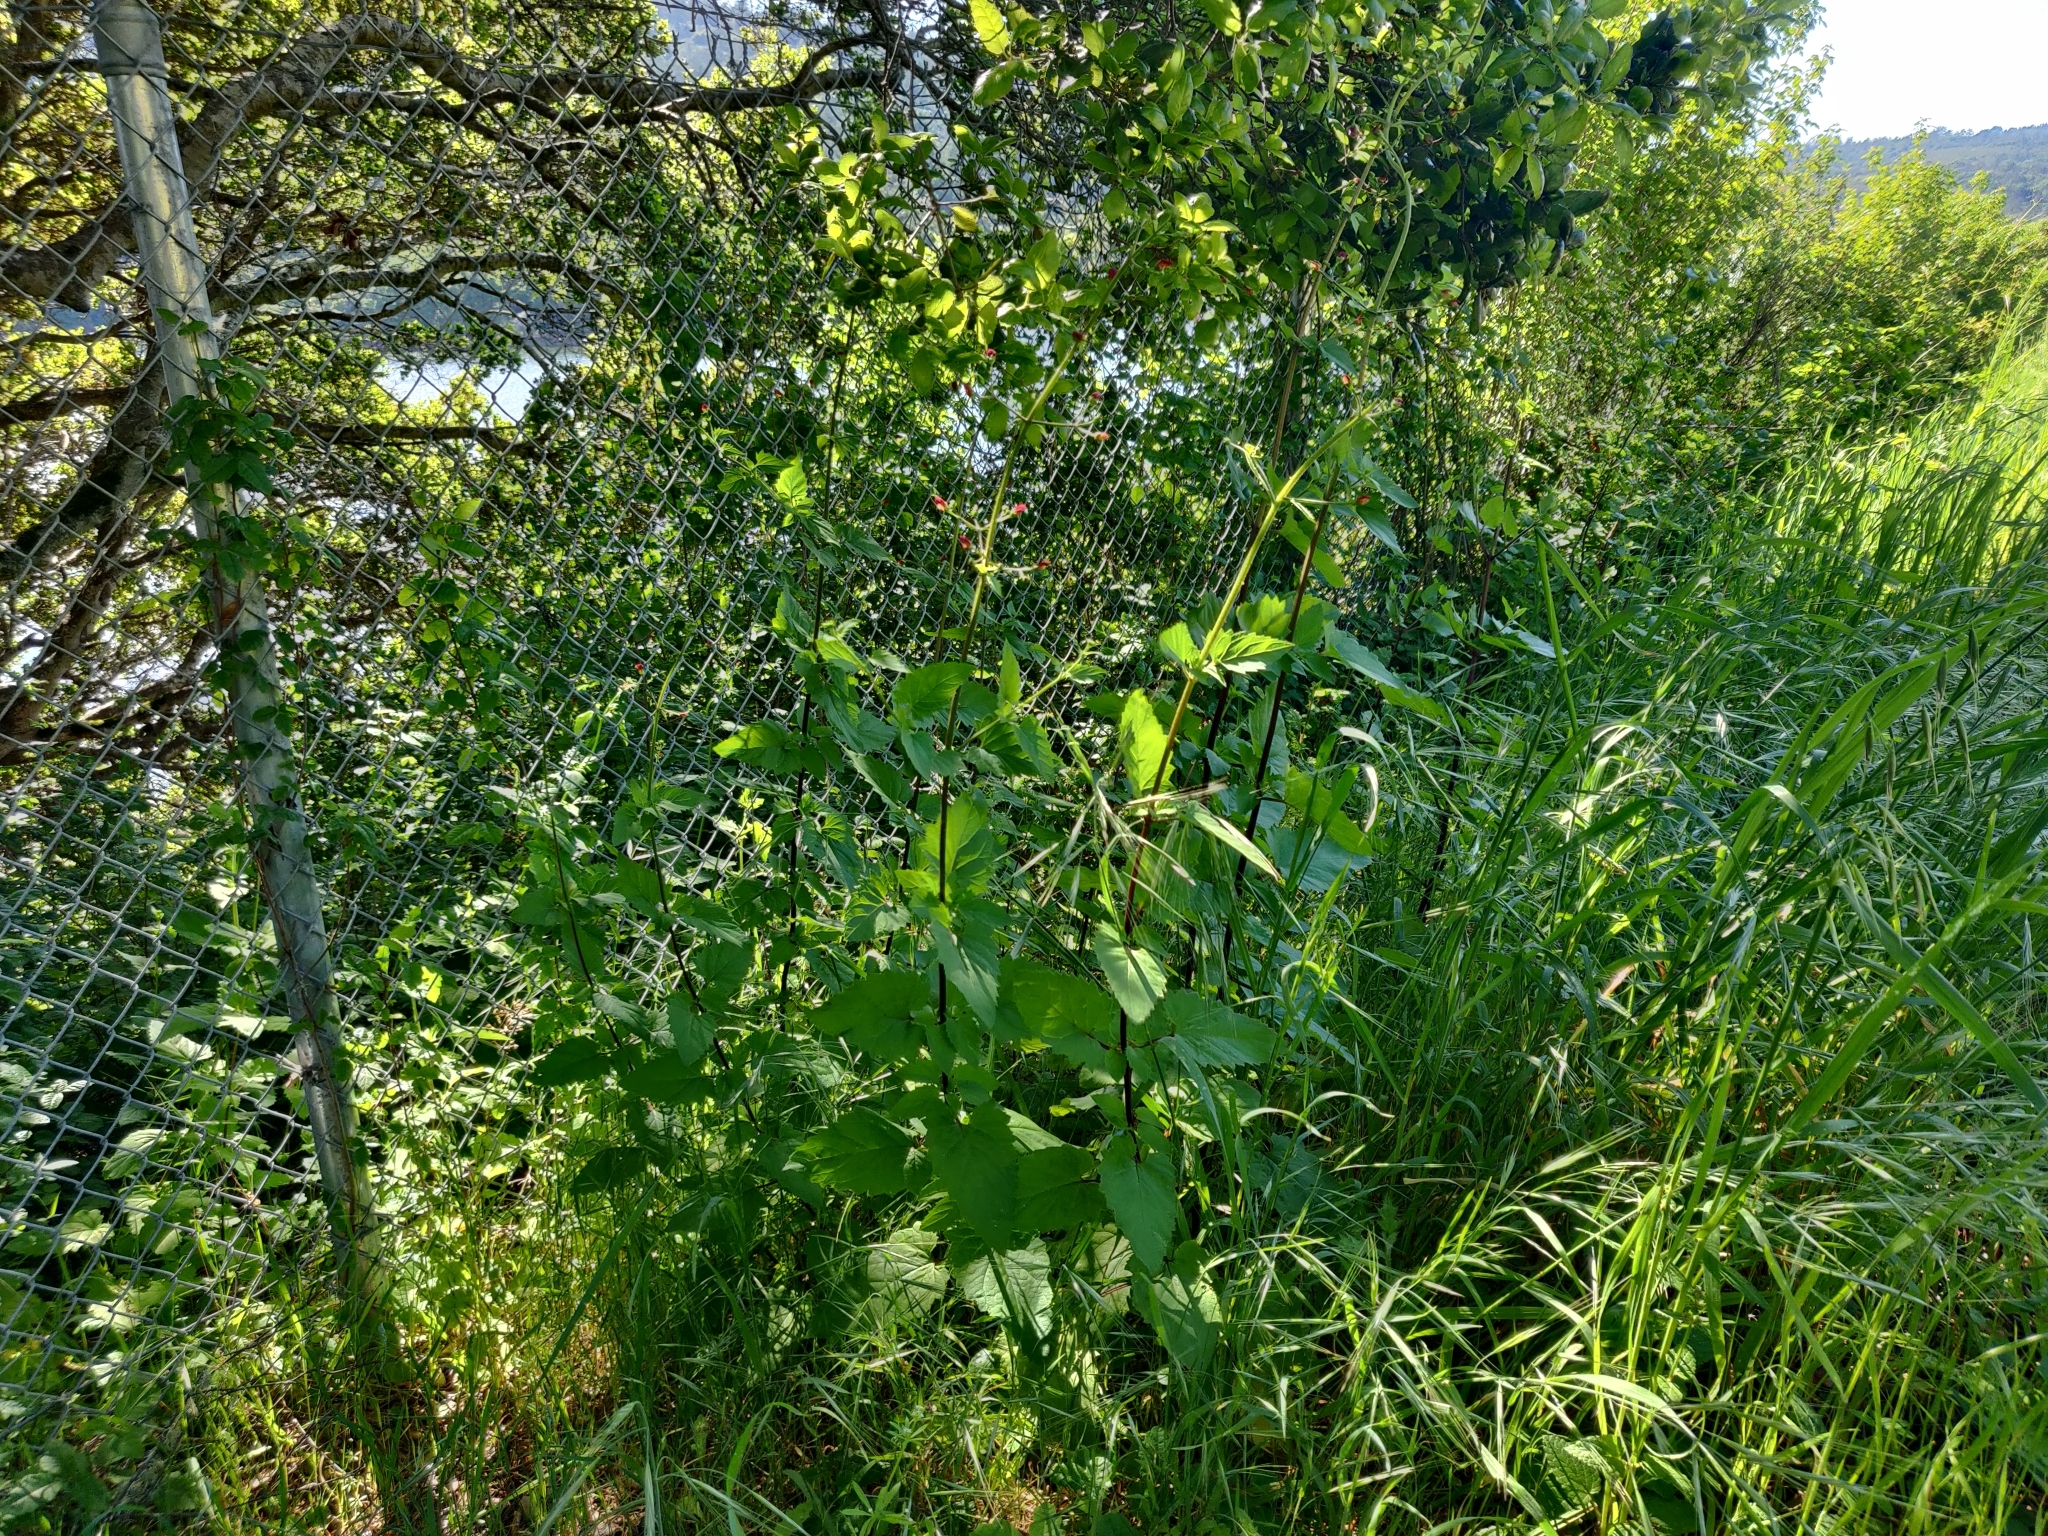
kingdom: Plantae
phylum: Tracheophyta
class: Magnoliopsida
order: Lamiales
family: Scrophulariaceae
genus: Scrophularia
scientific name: Scrophularia californica
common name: California figwort
